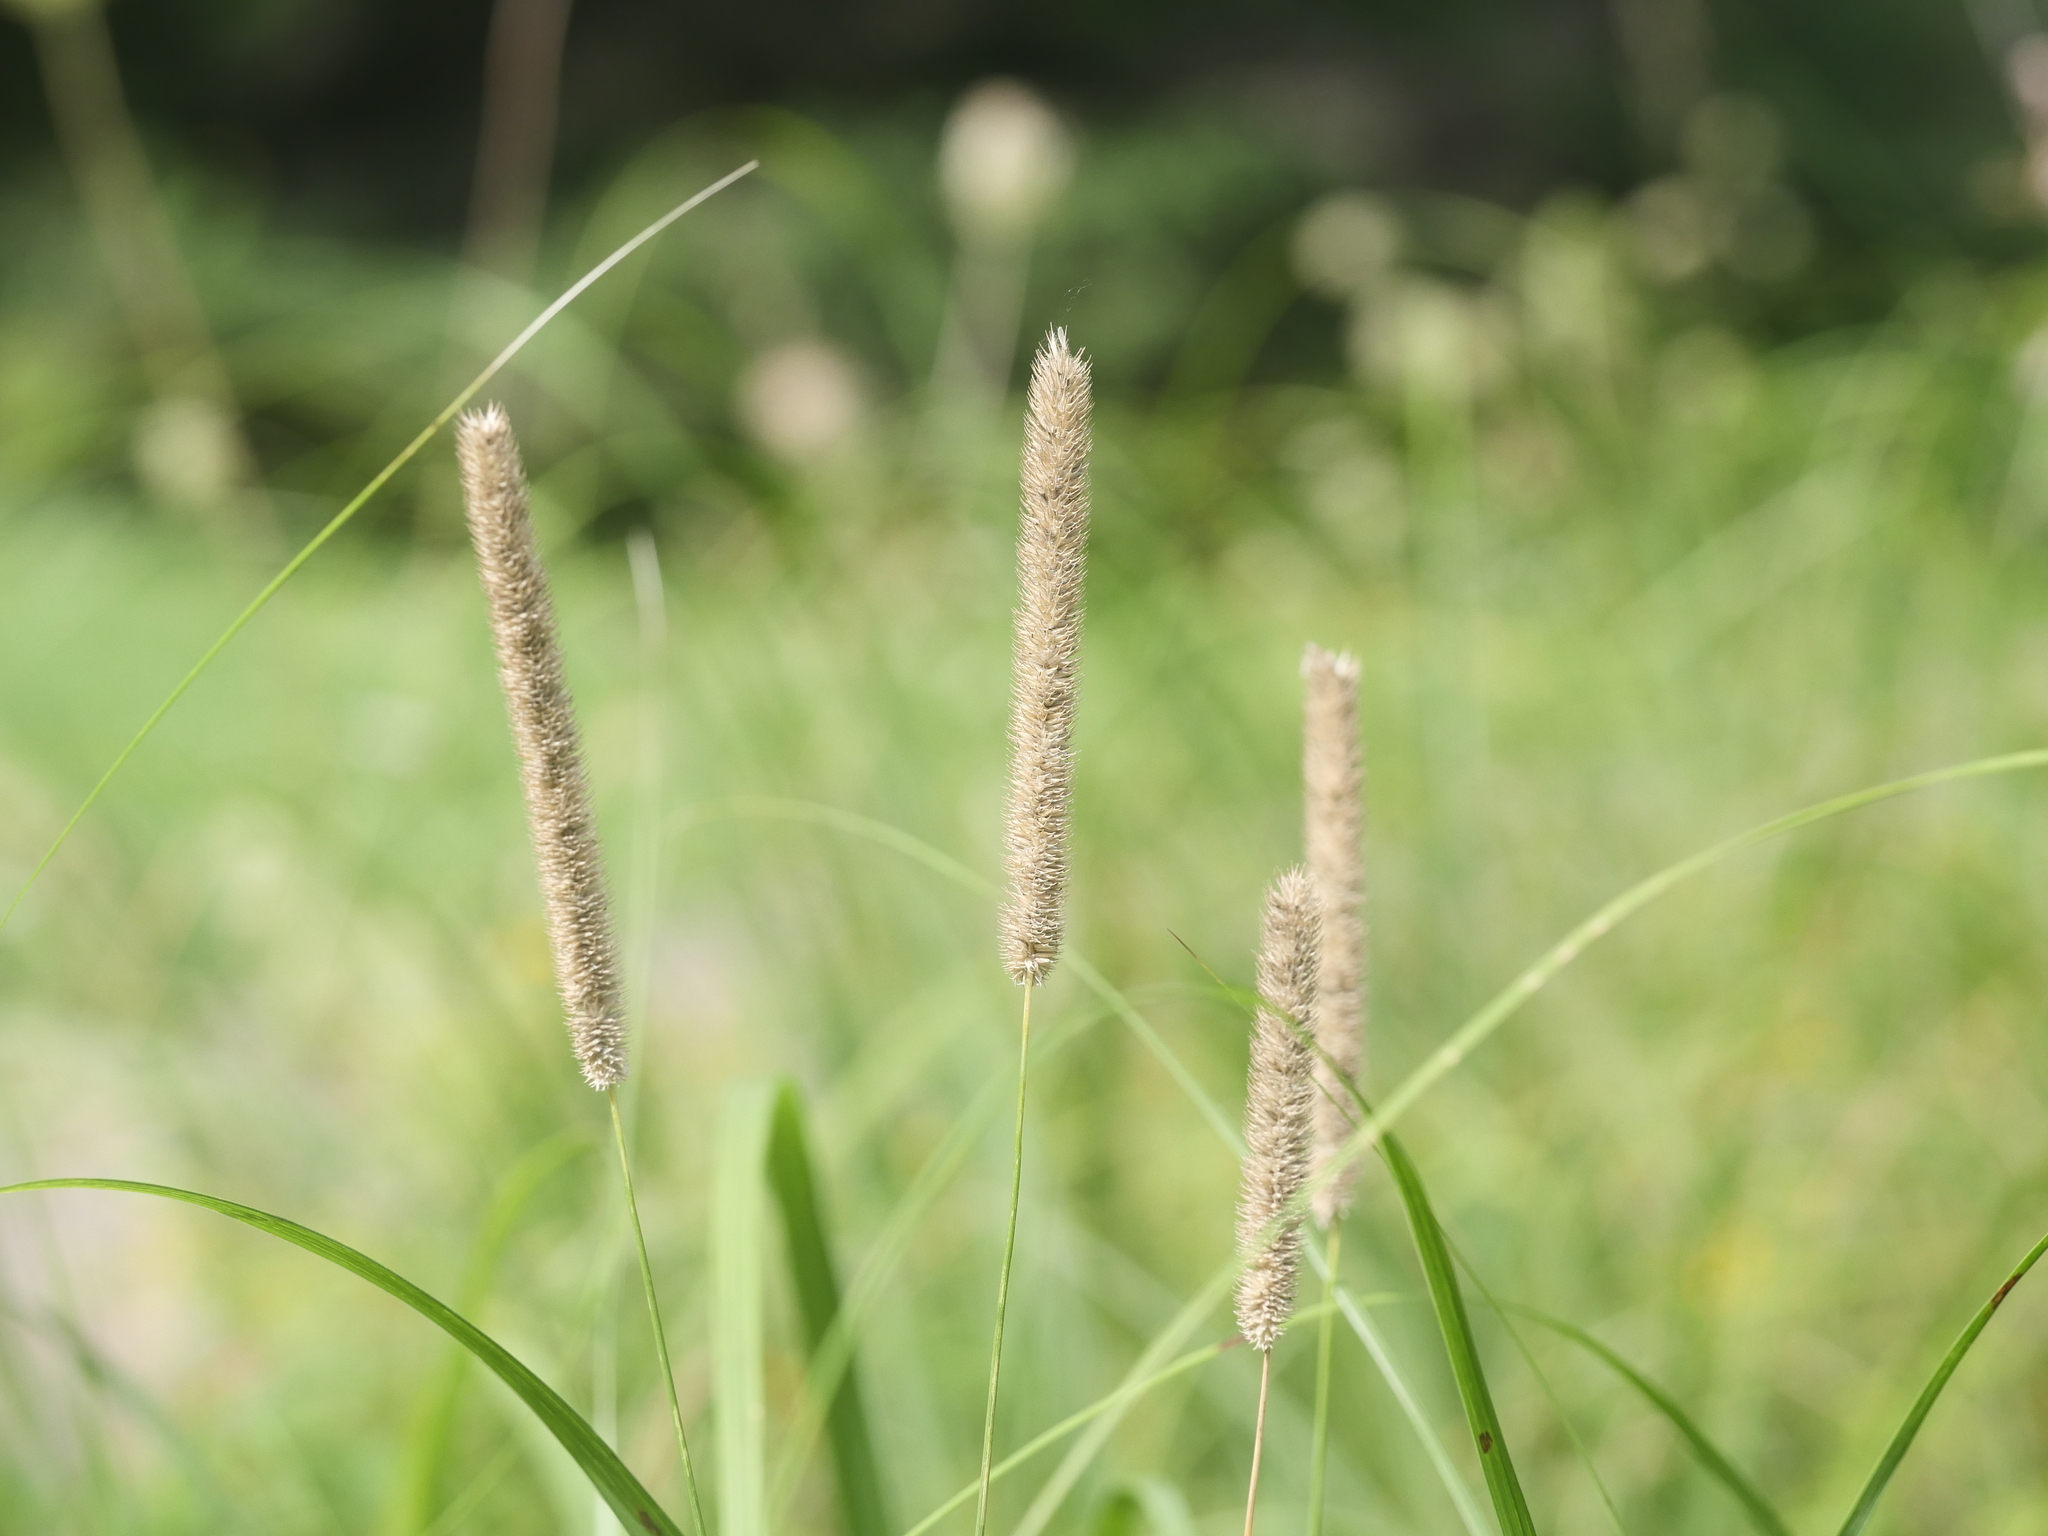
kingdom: Plantae
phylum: Tracheophyta
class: Liliopsida
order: Poales
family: Poaceae
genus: Phleum
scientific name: Phleum pratense
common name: Timothy grass
